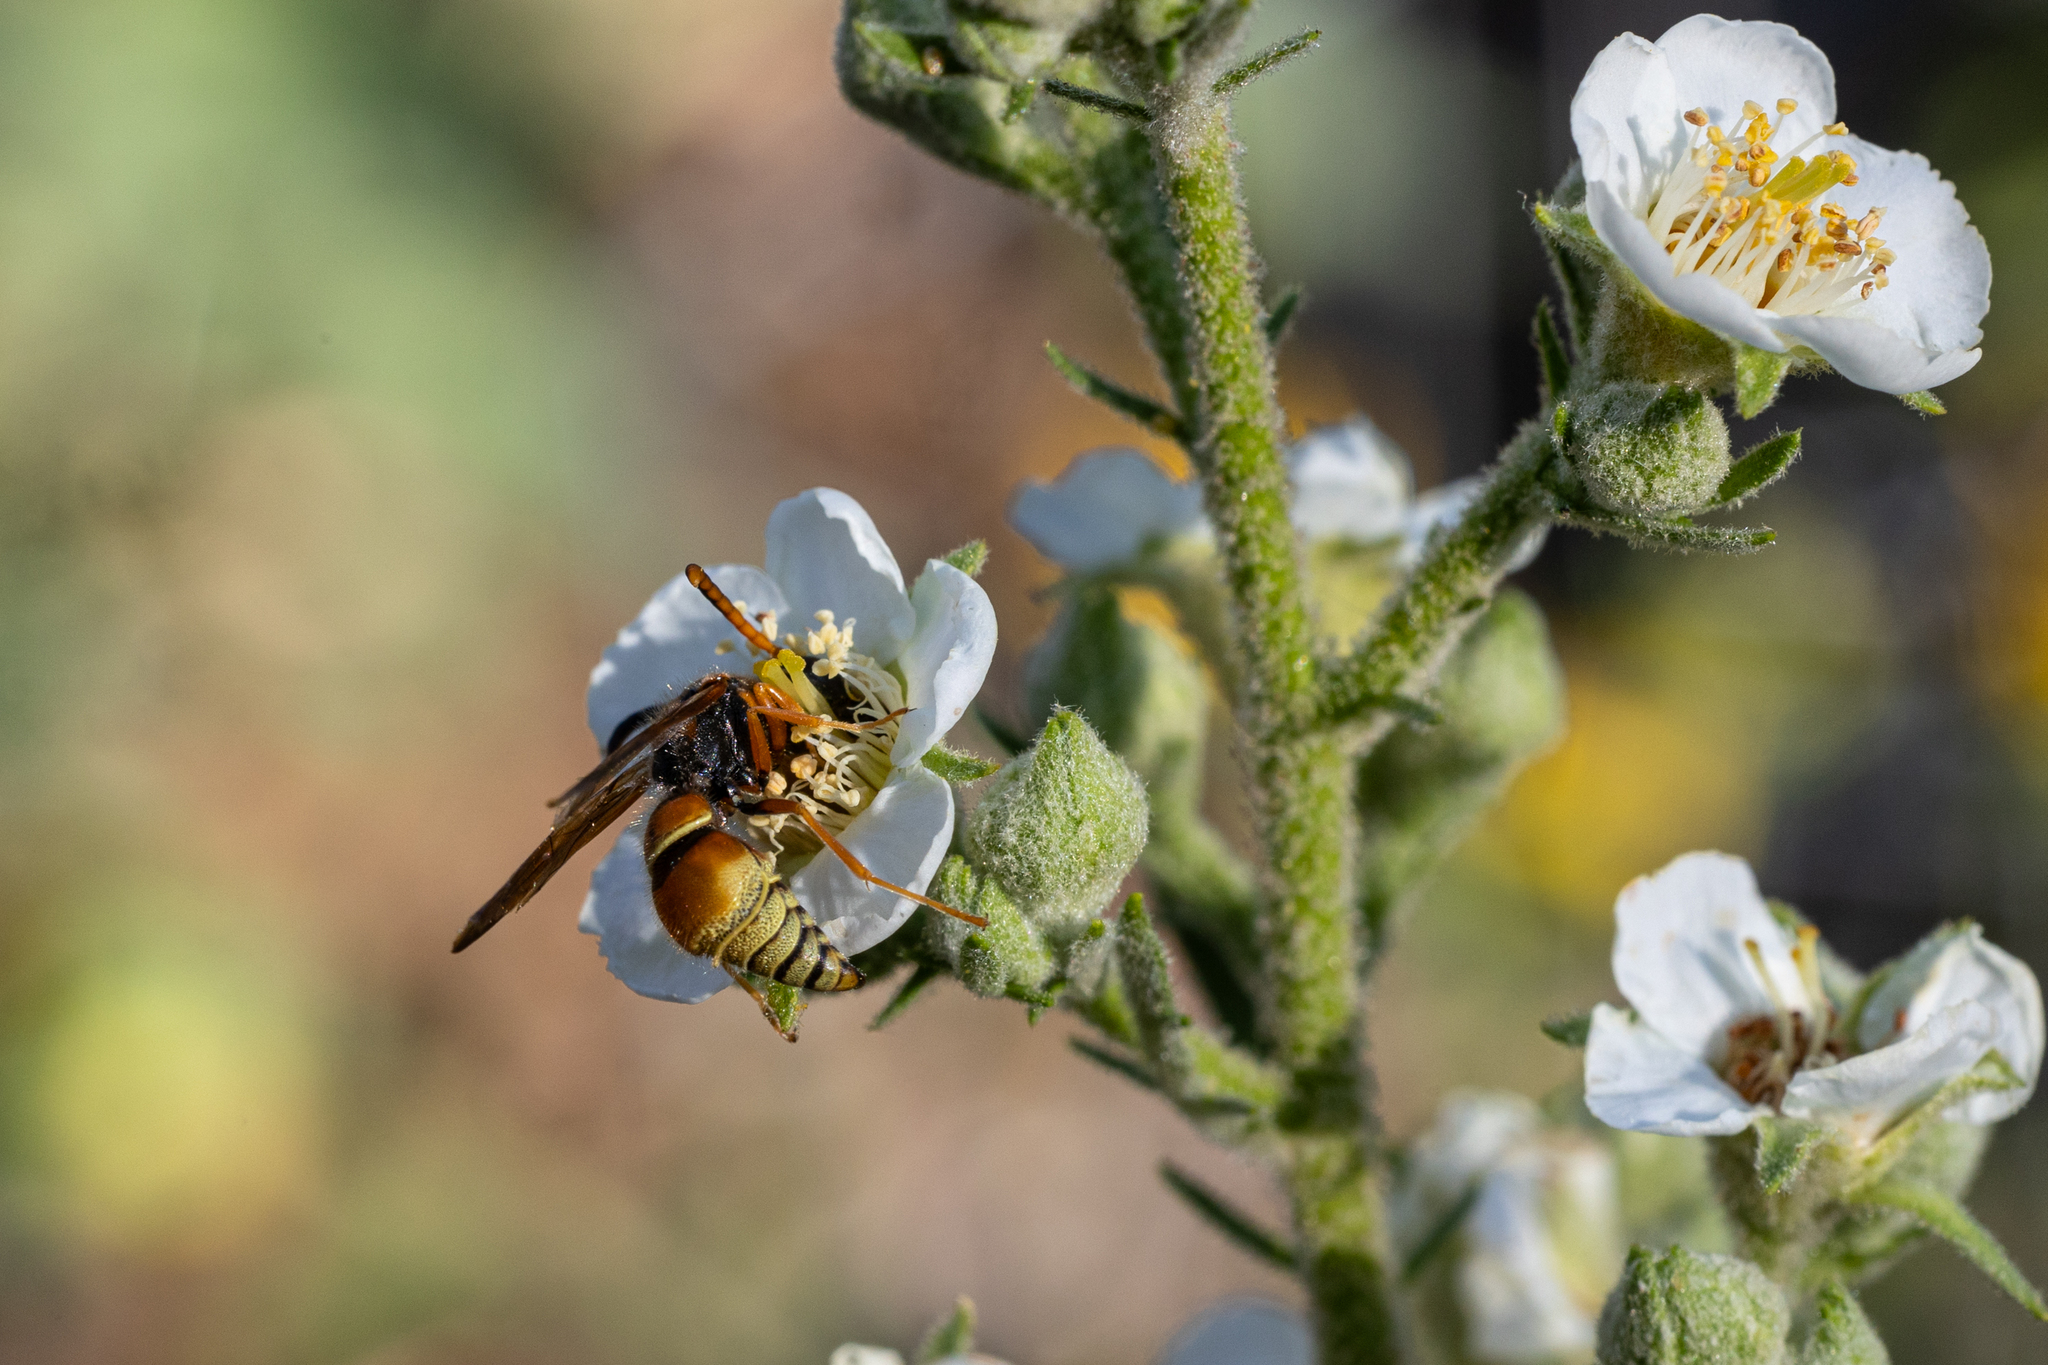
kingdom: Animalia
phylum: Arthropoda
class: Insecta
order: Hymenoptera
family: Vespidae
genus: Ancistrocerus
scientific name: Ancistrocerus
